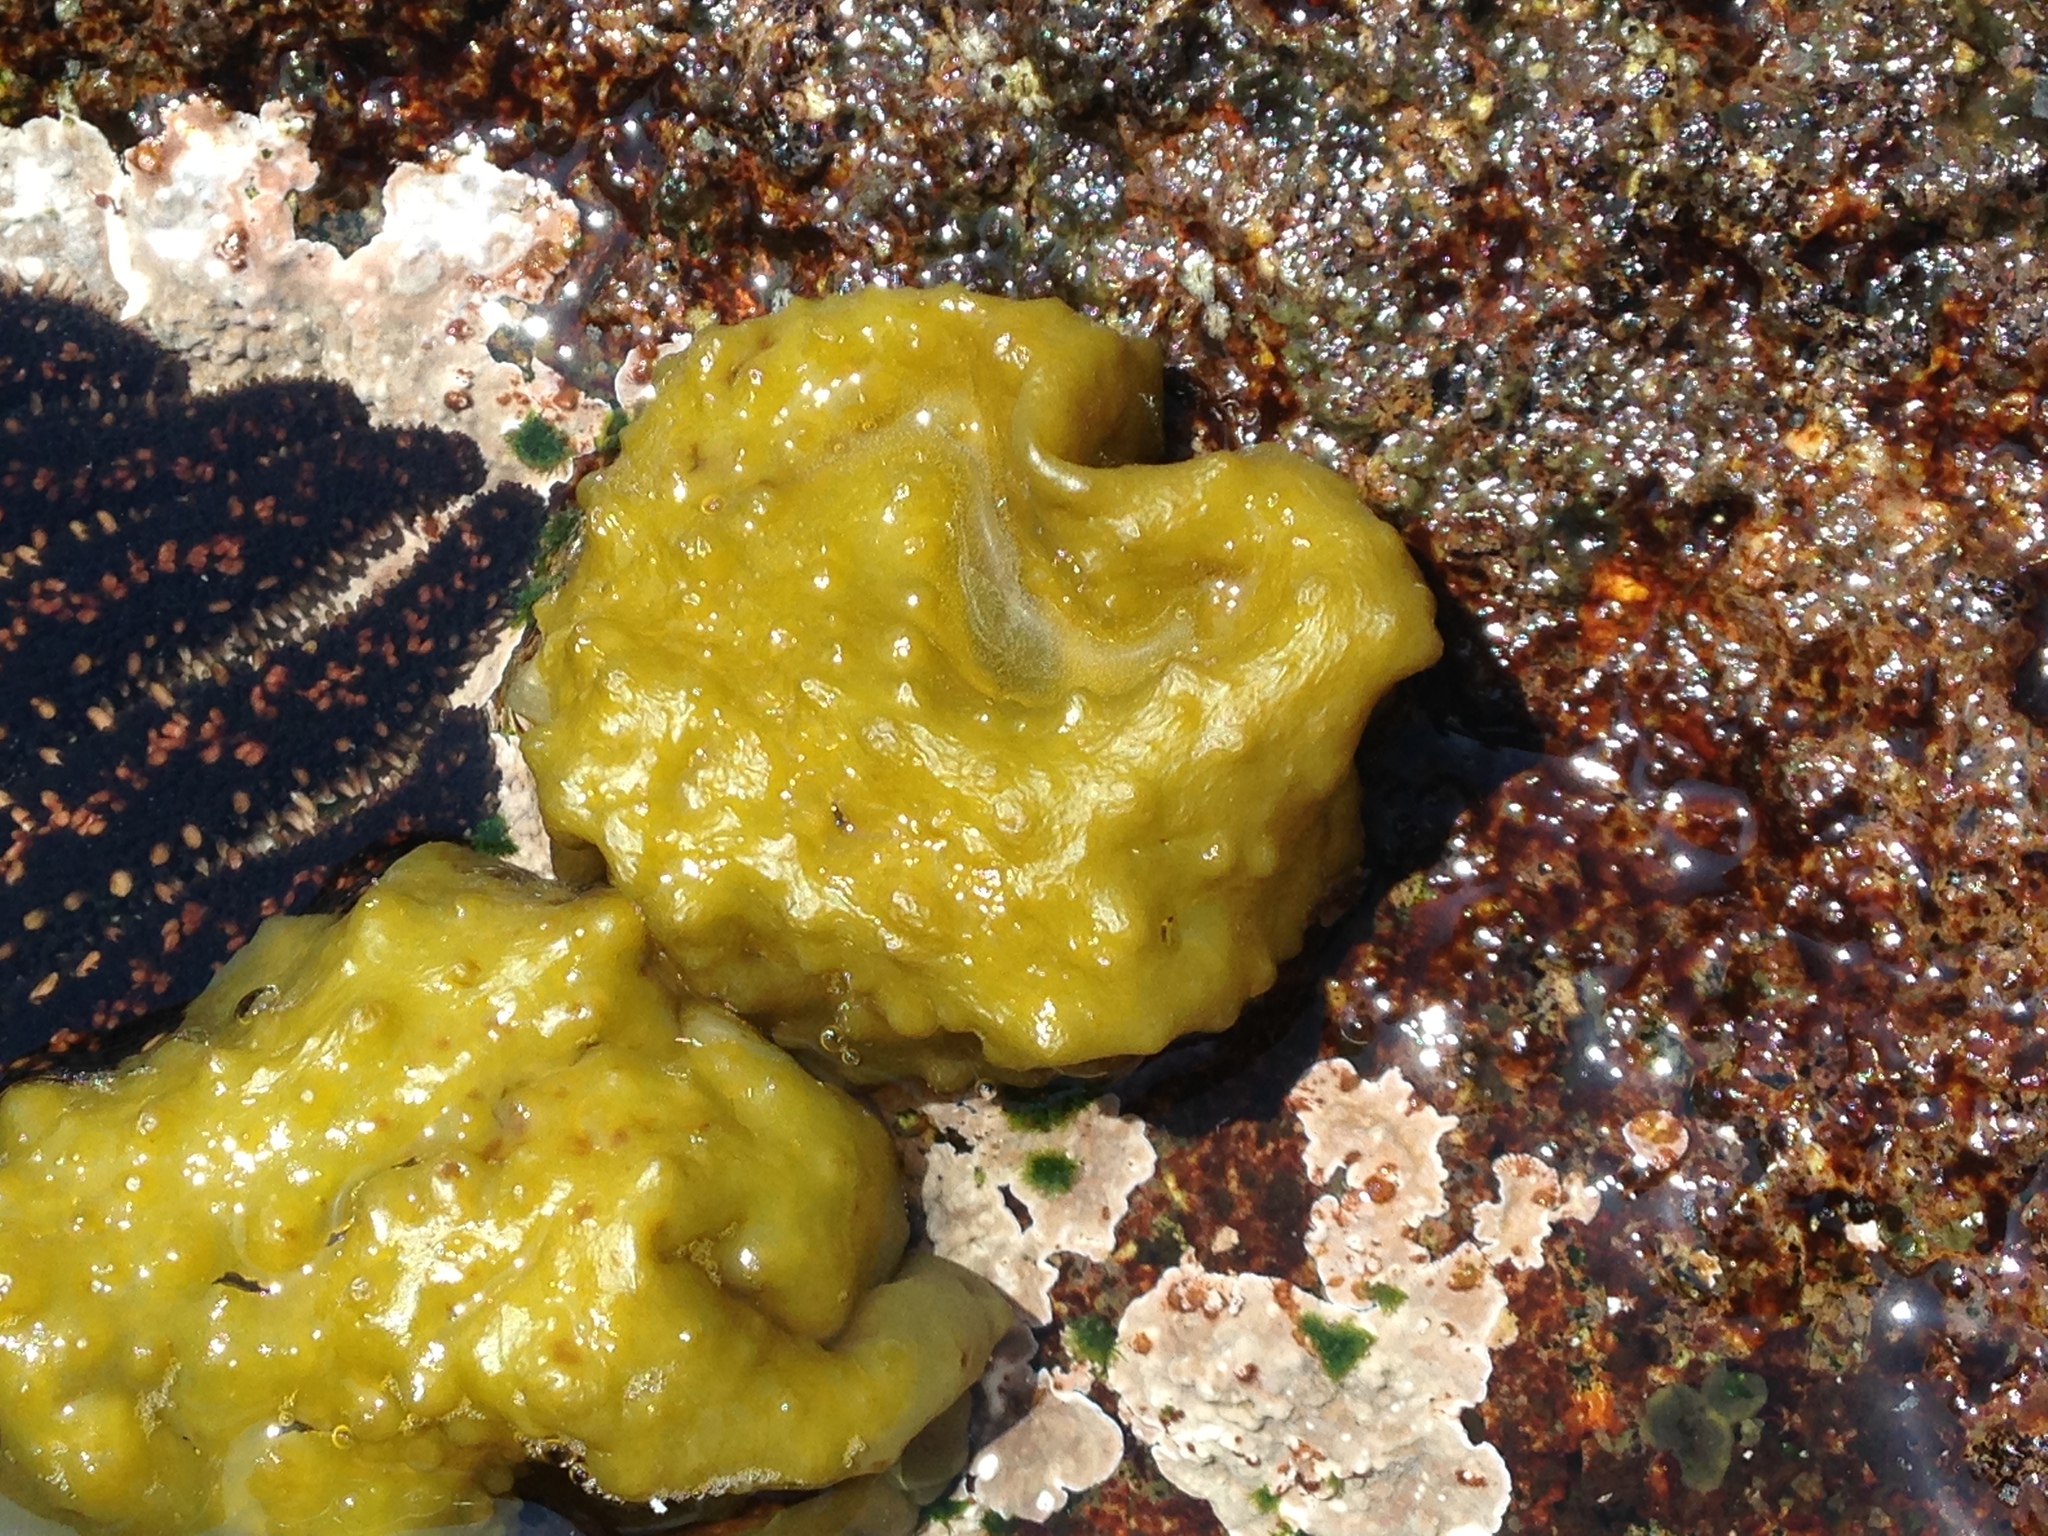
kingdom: Chromista
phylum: Ochrophyta
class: Phaeophyceae
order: Scytosiphonales
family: Scytosiphonaceae
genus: Colpomenia
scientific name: Colpomenia
